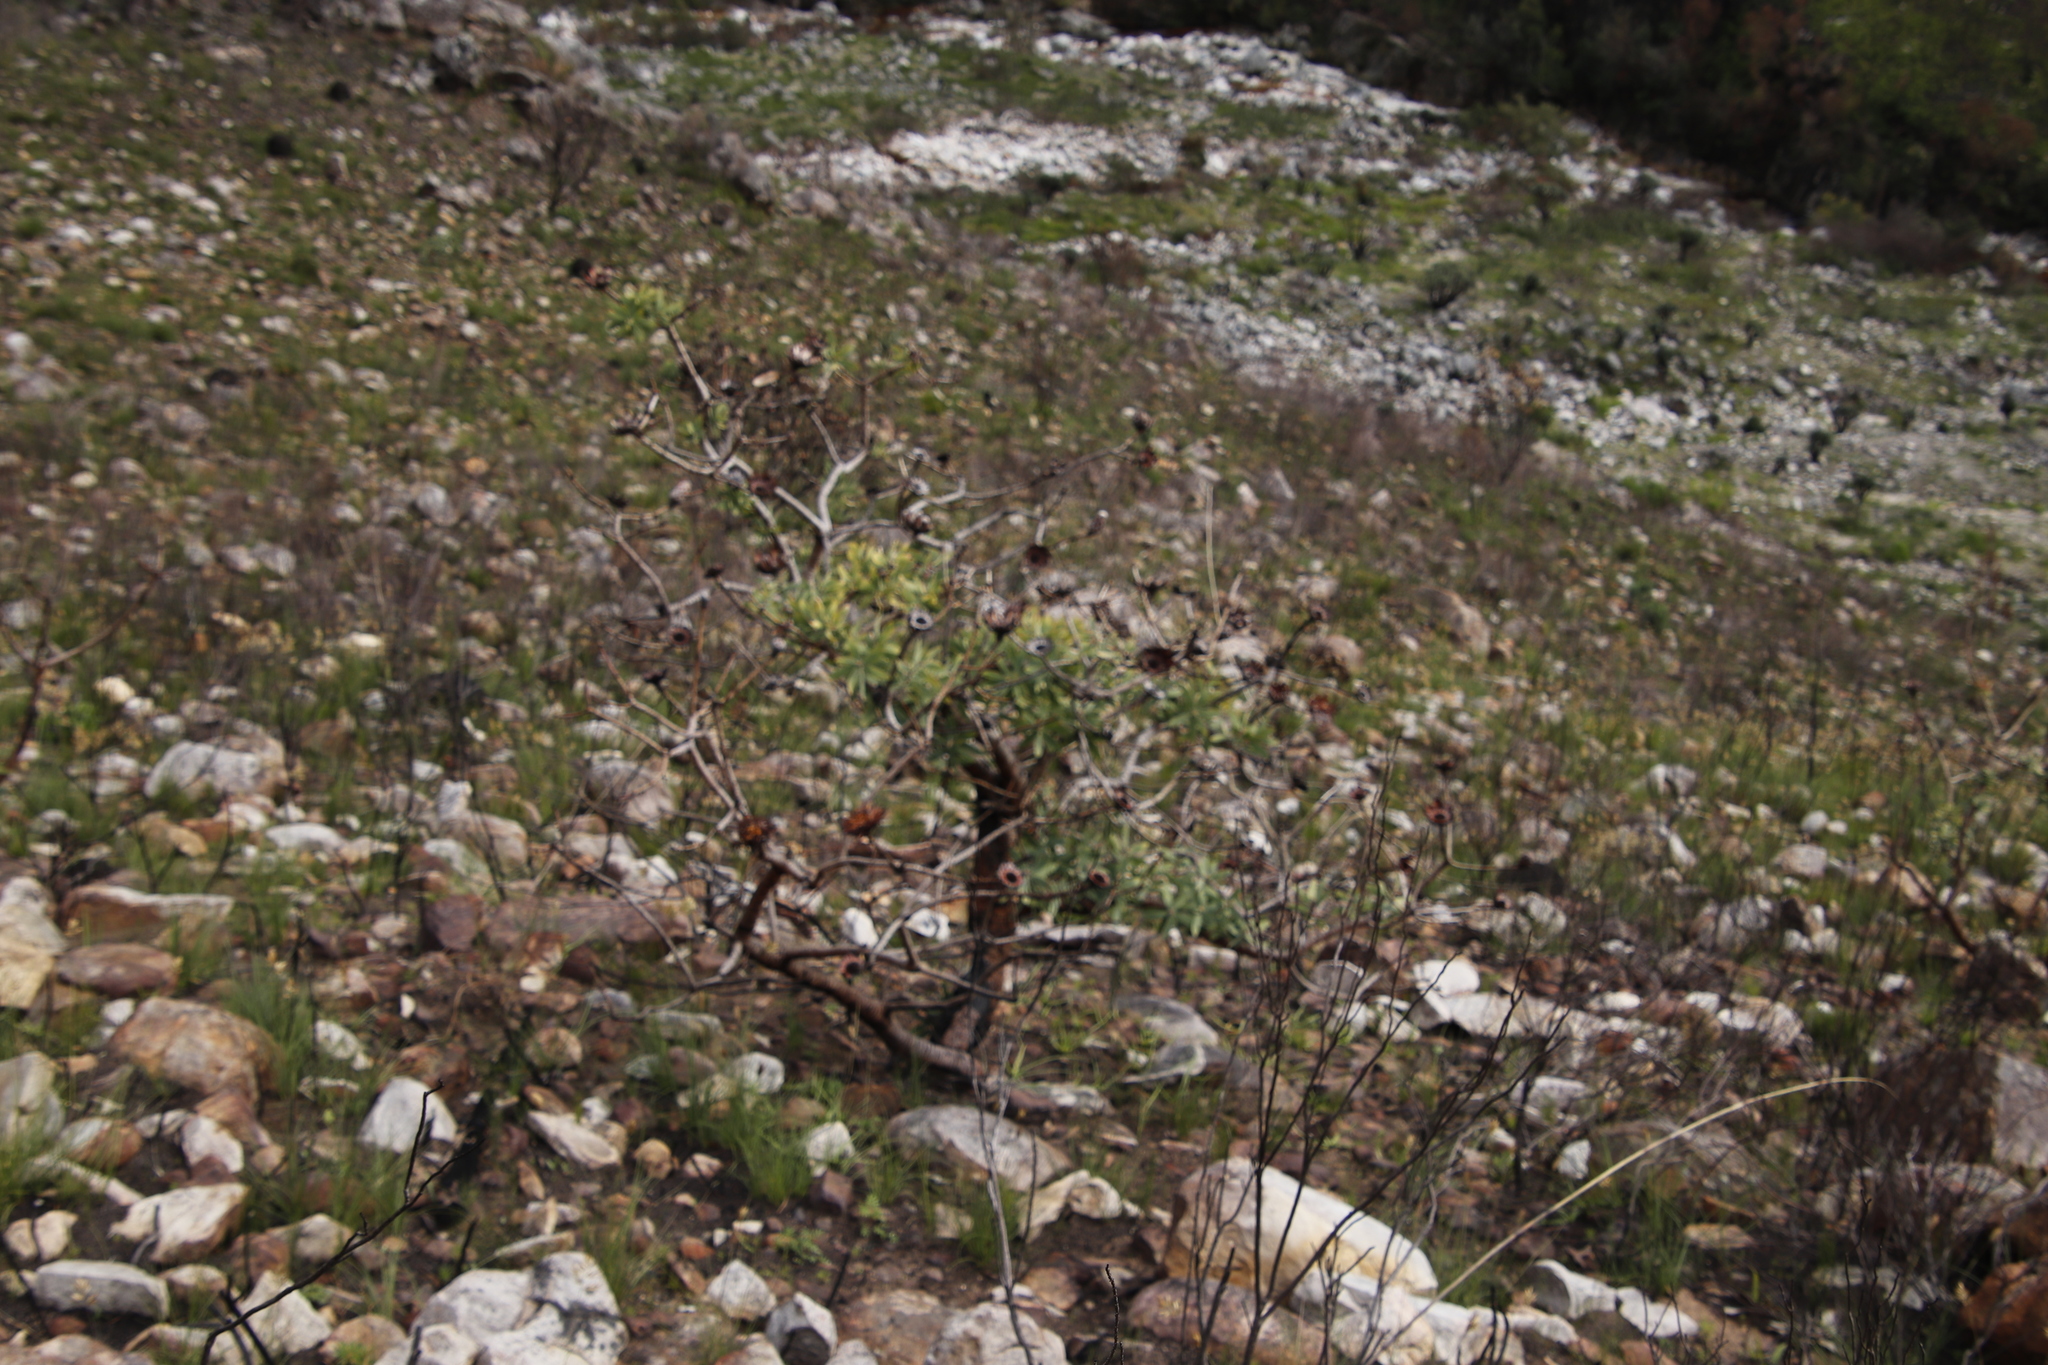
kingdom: Plantae
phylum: Tracheophyta
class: Magnoliopsida
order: Proteales
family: Proteaceae
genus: Protea
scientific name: Protea nitida
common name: Tree protea
